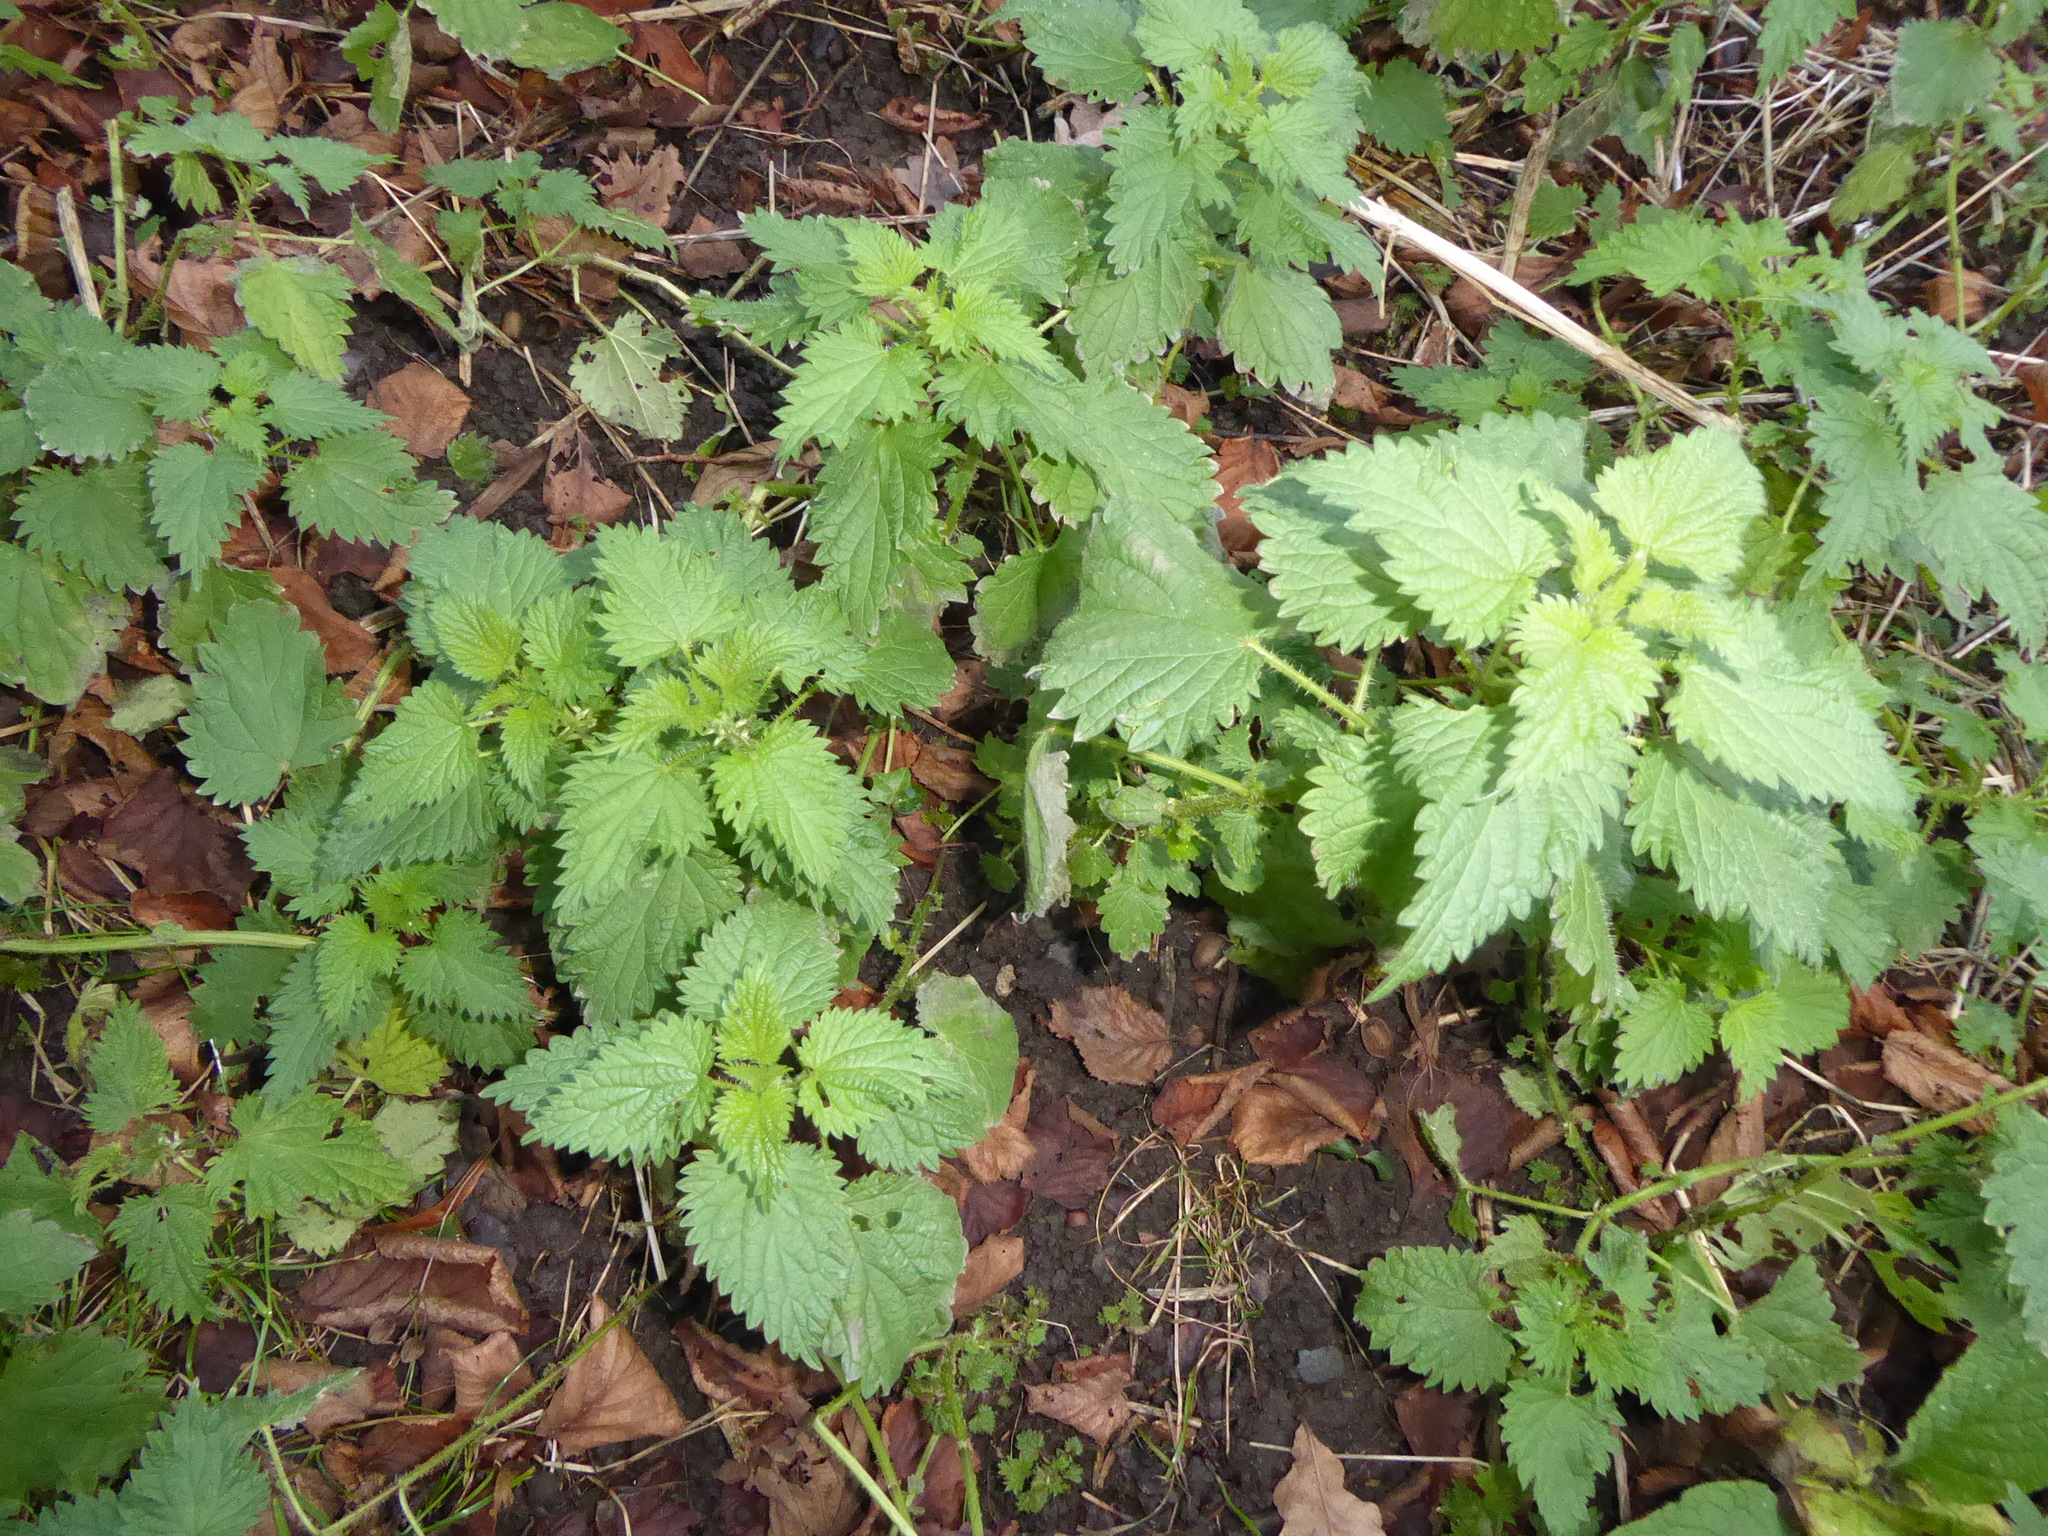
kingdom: Plantae
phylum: Tracheophyta
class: Magnoliopsida
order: Rosales
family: Urticaceae
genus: Urtica
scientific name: Urtica dioica
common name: Common nettle
